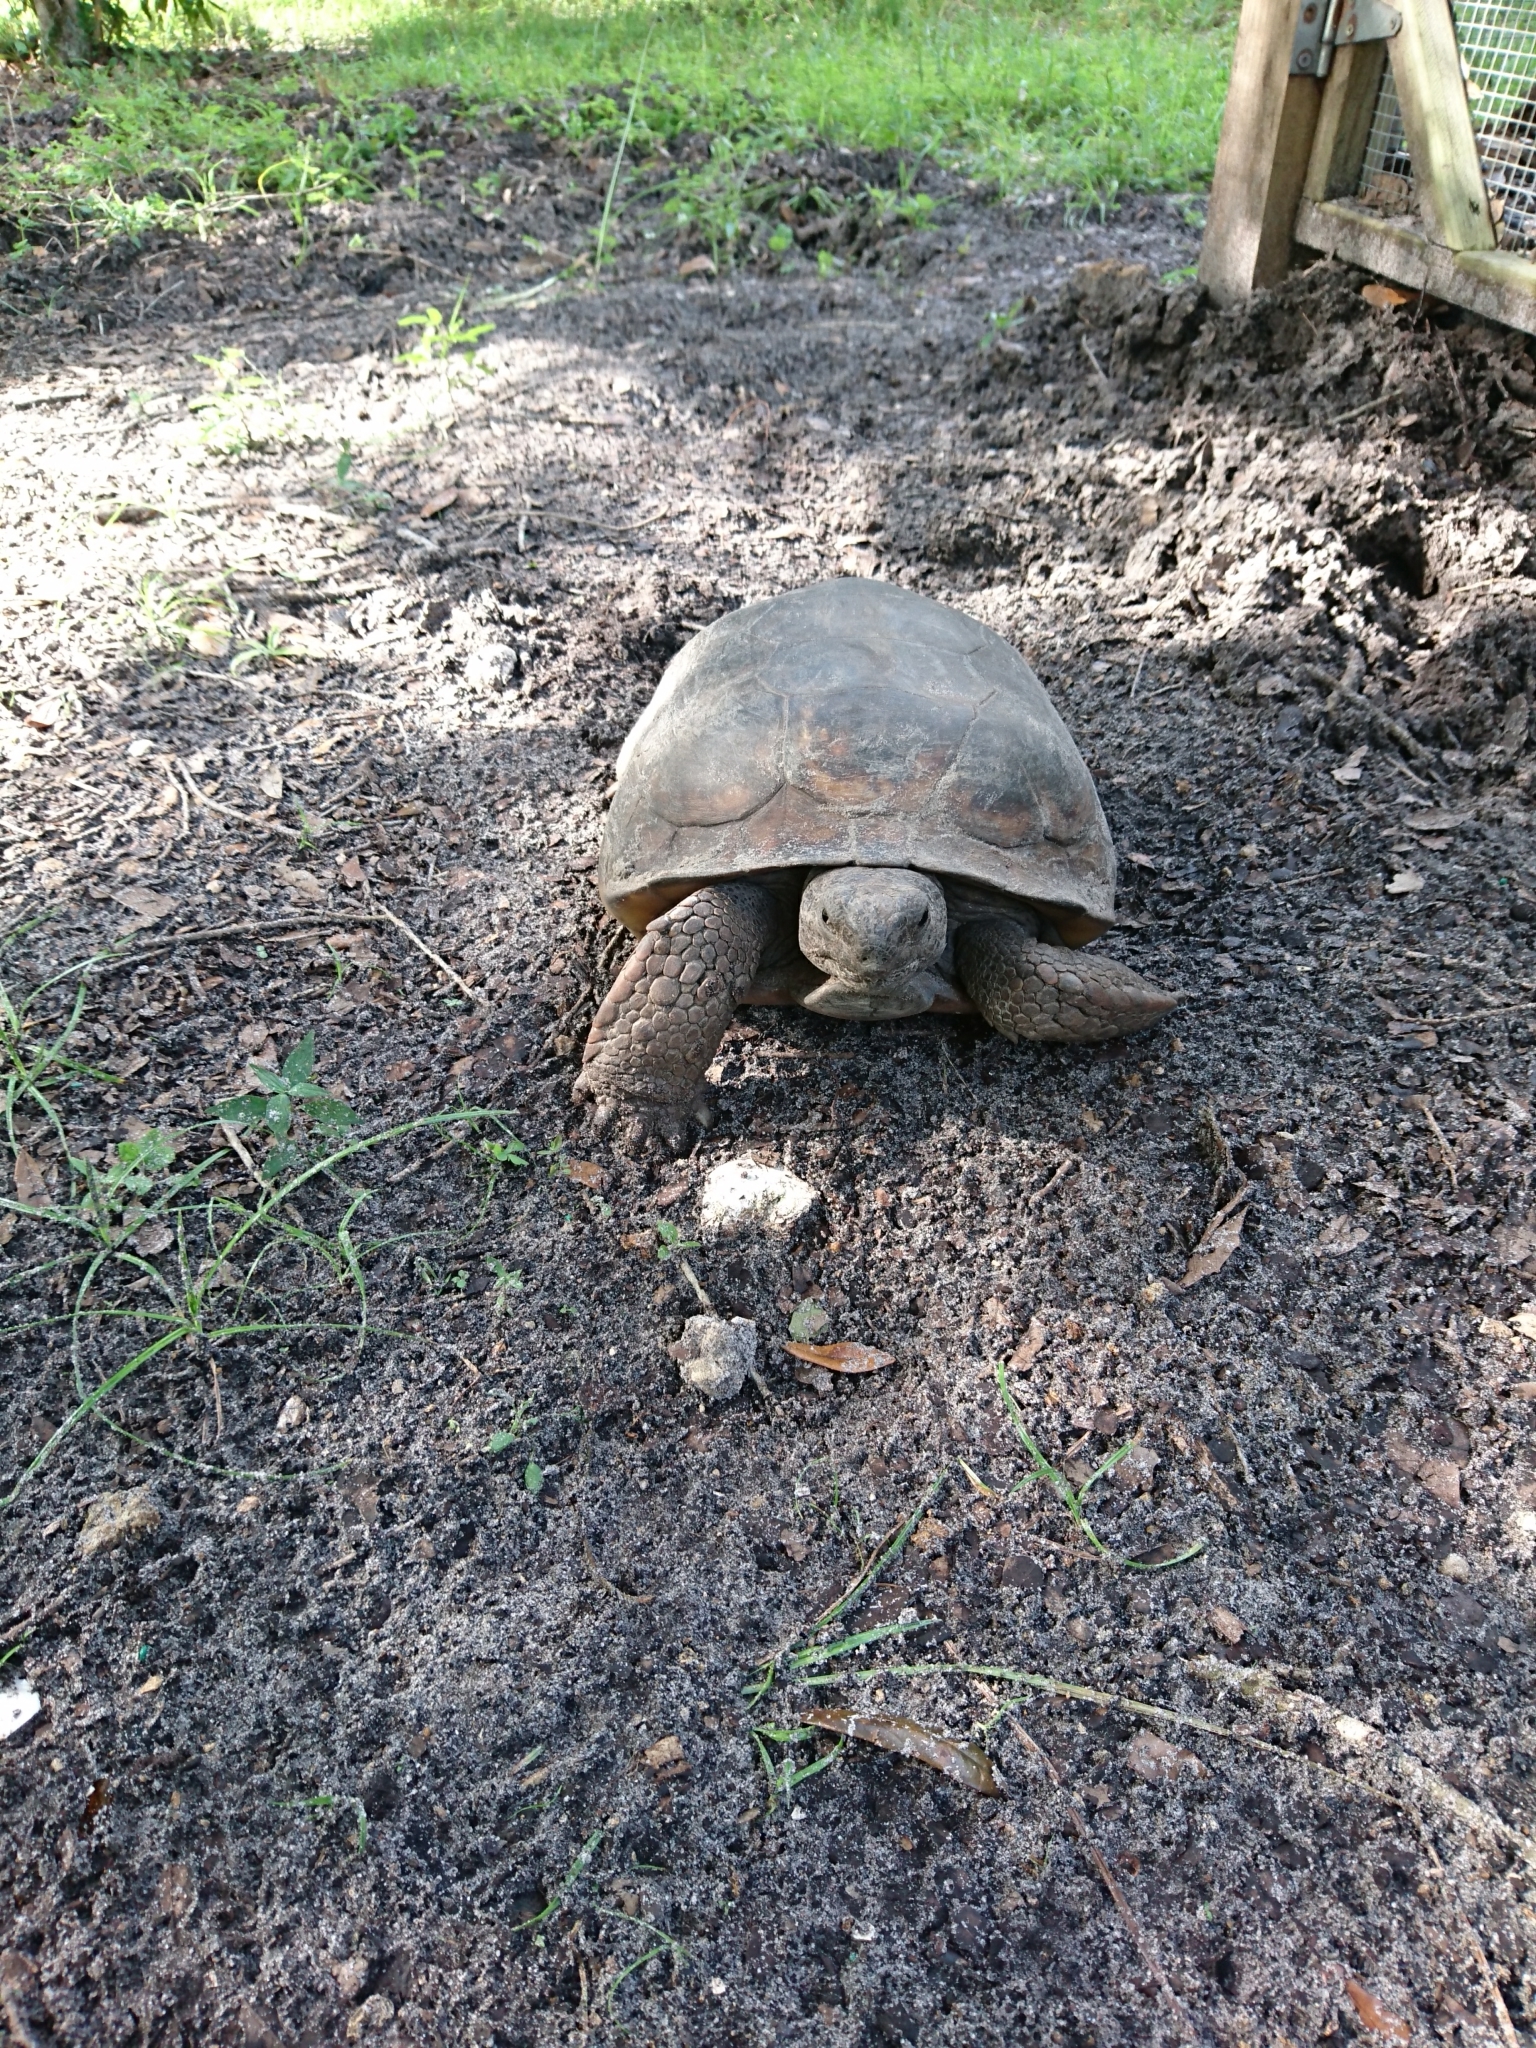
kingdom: Animalia
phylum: Chordata
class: Testudines
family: Testudinidae
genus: Gopherus
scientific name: Gopherus polyphemus
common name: Florida gopher tortoise
